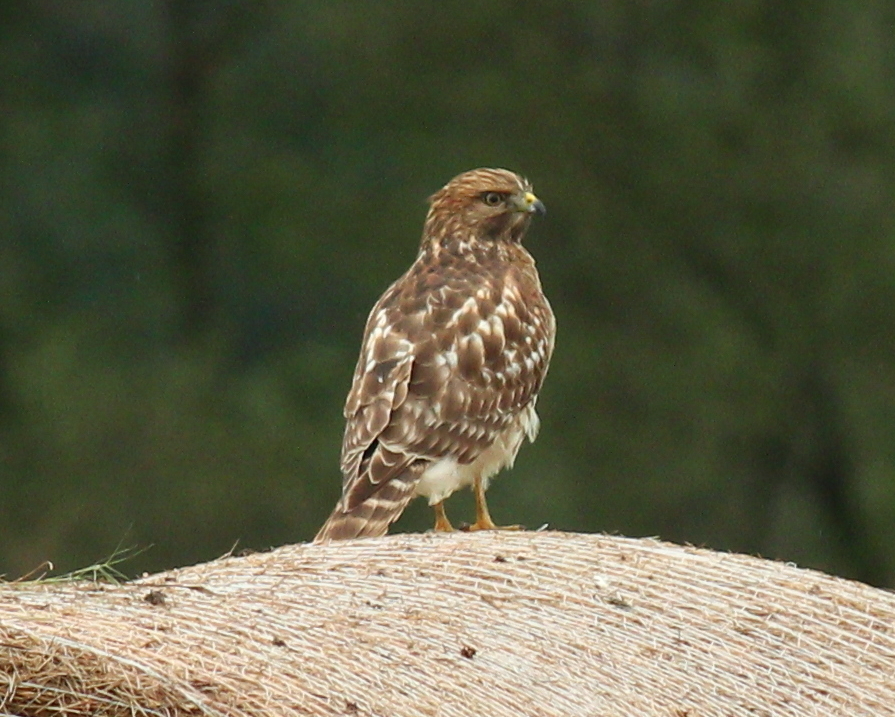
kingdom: Animalia
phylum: Chordata
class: Aves
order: Accipitriformes
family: Accipitridae
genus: Buteo
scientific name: Buteo lineatus
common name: Red-shouldered hawk
